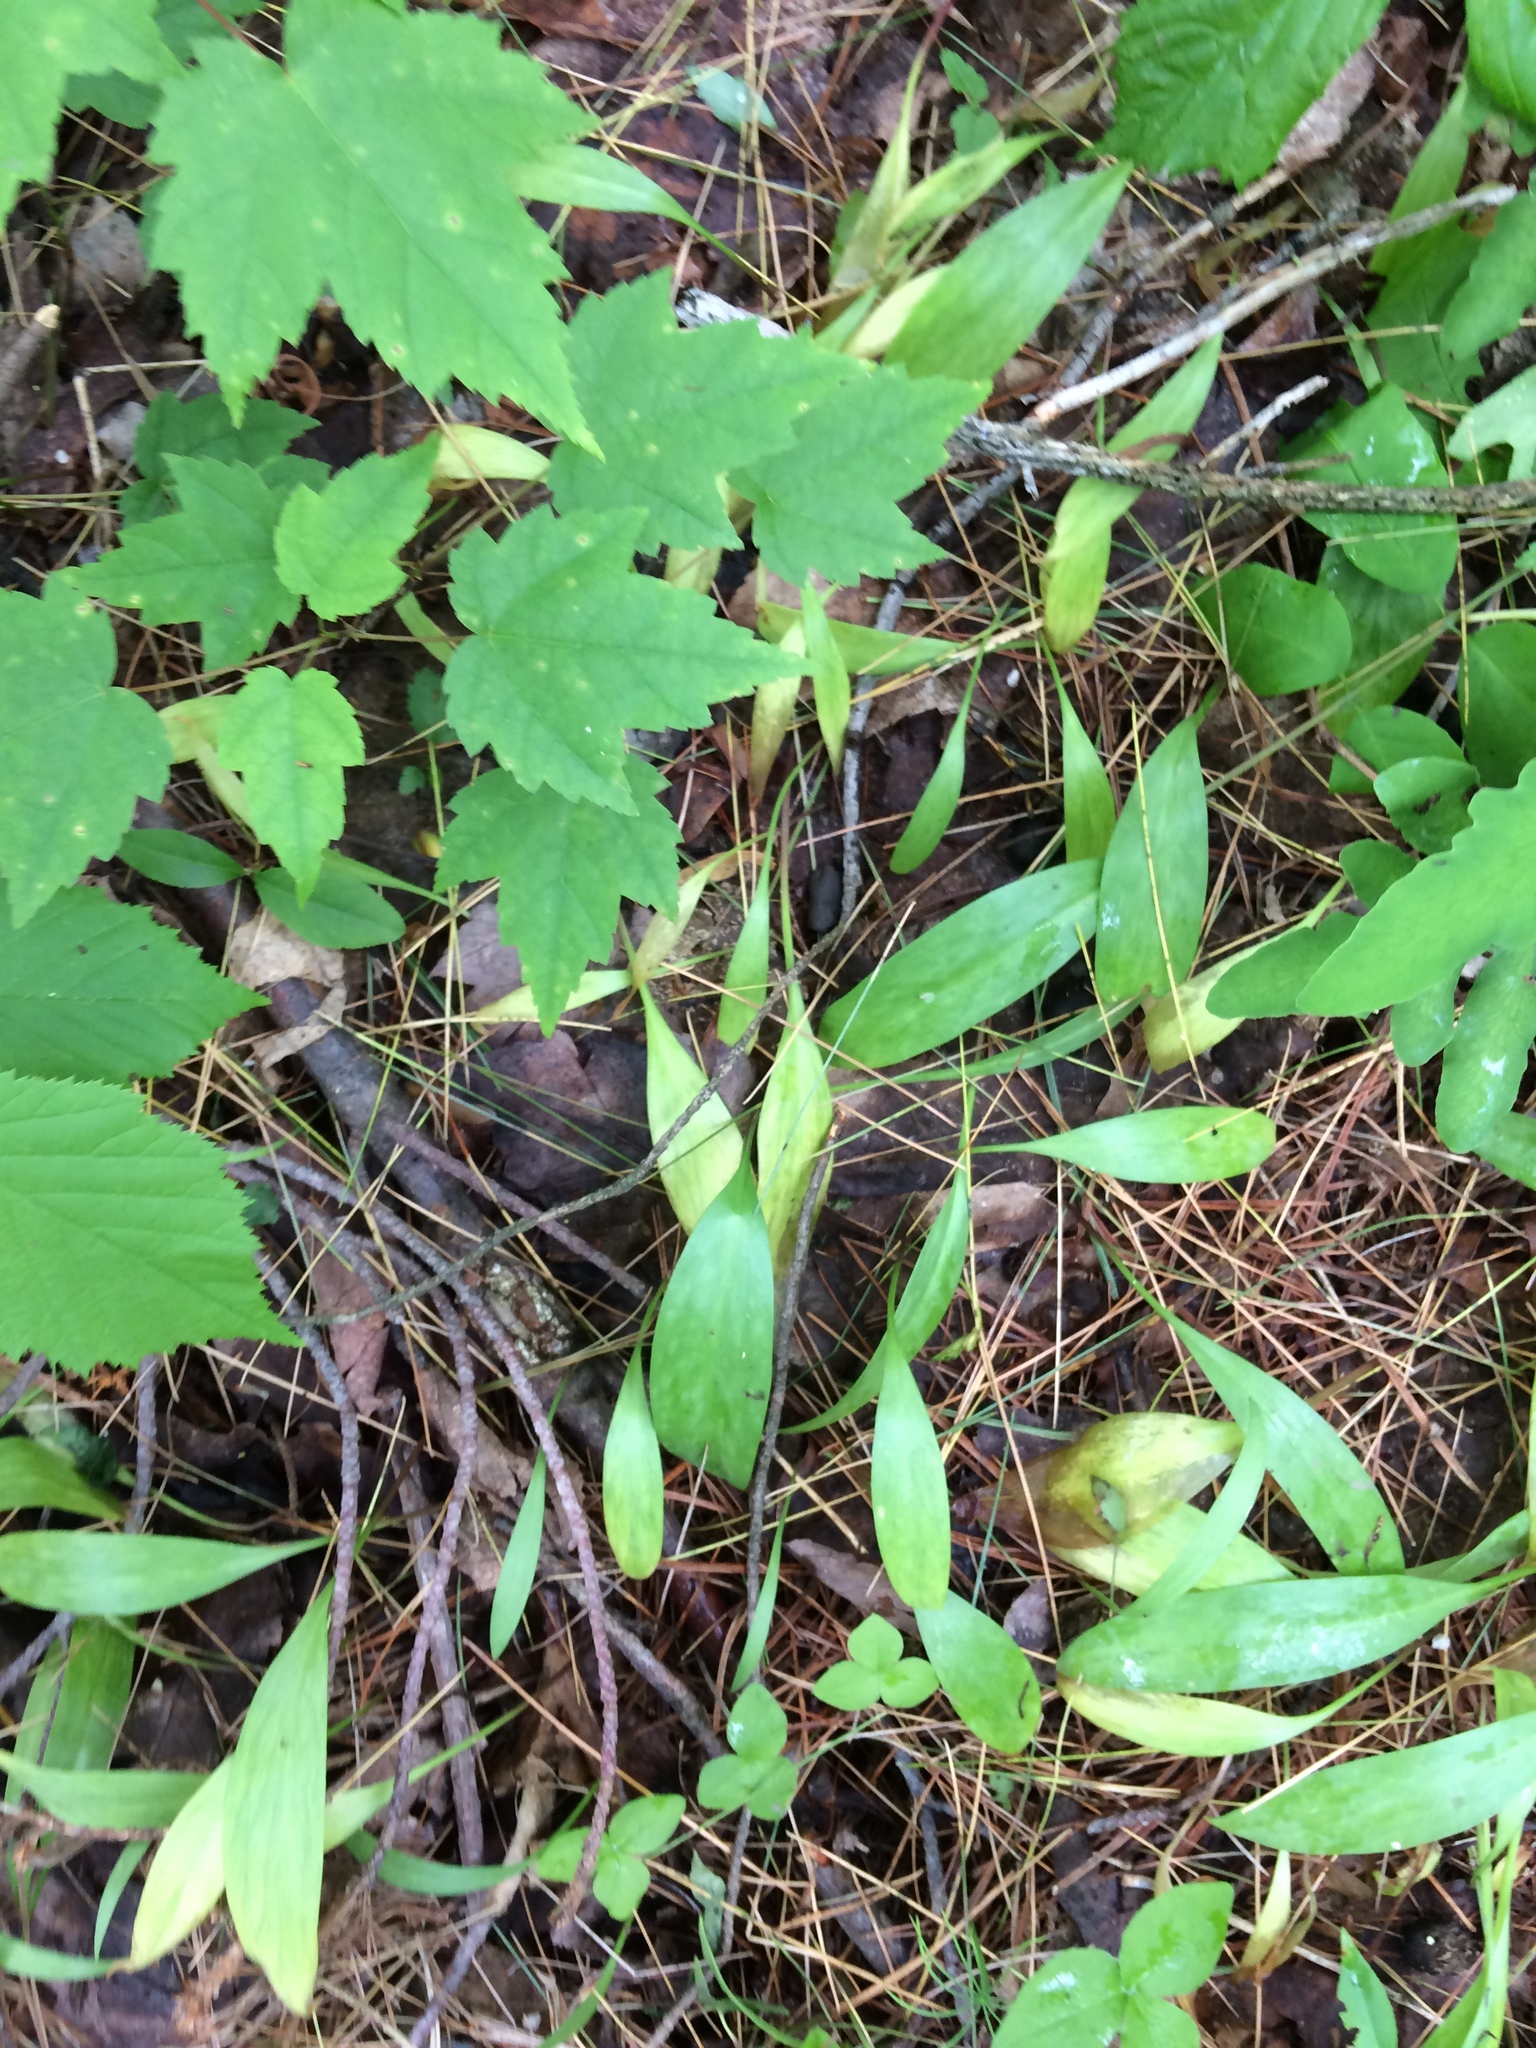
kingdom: Plantae
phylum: Tracheophyta
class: Liliopsida
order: Liliales
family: Liliaceae
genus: Erythronium
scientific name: Erythronium americanum
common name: Yellow adder's-tongue
